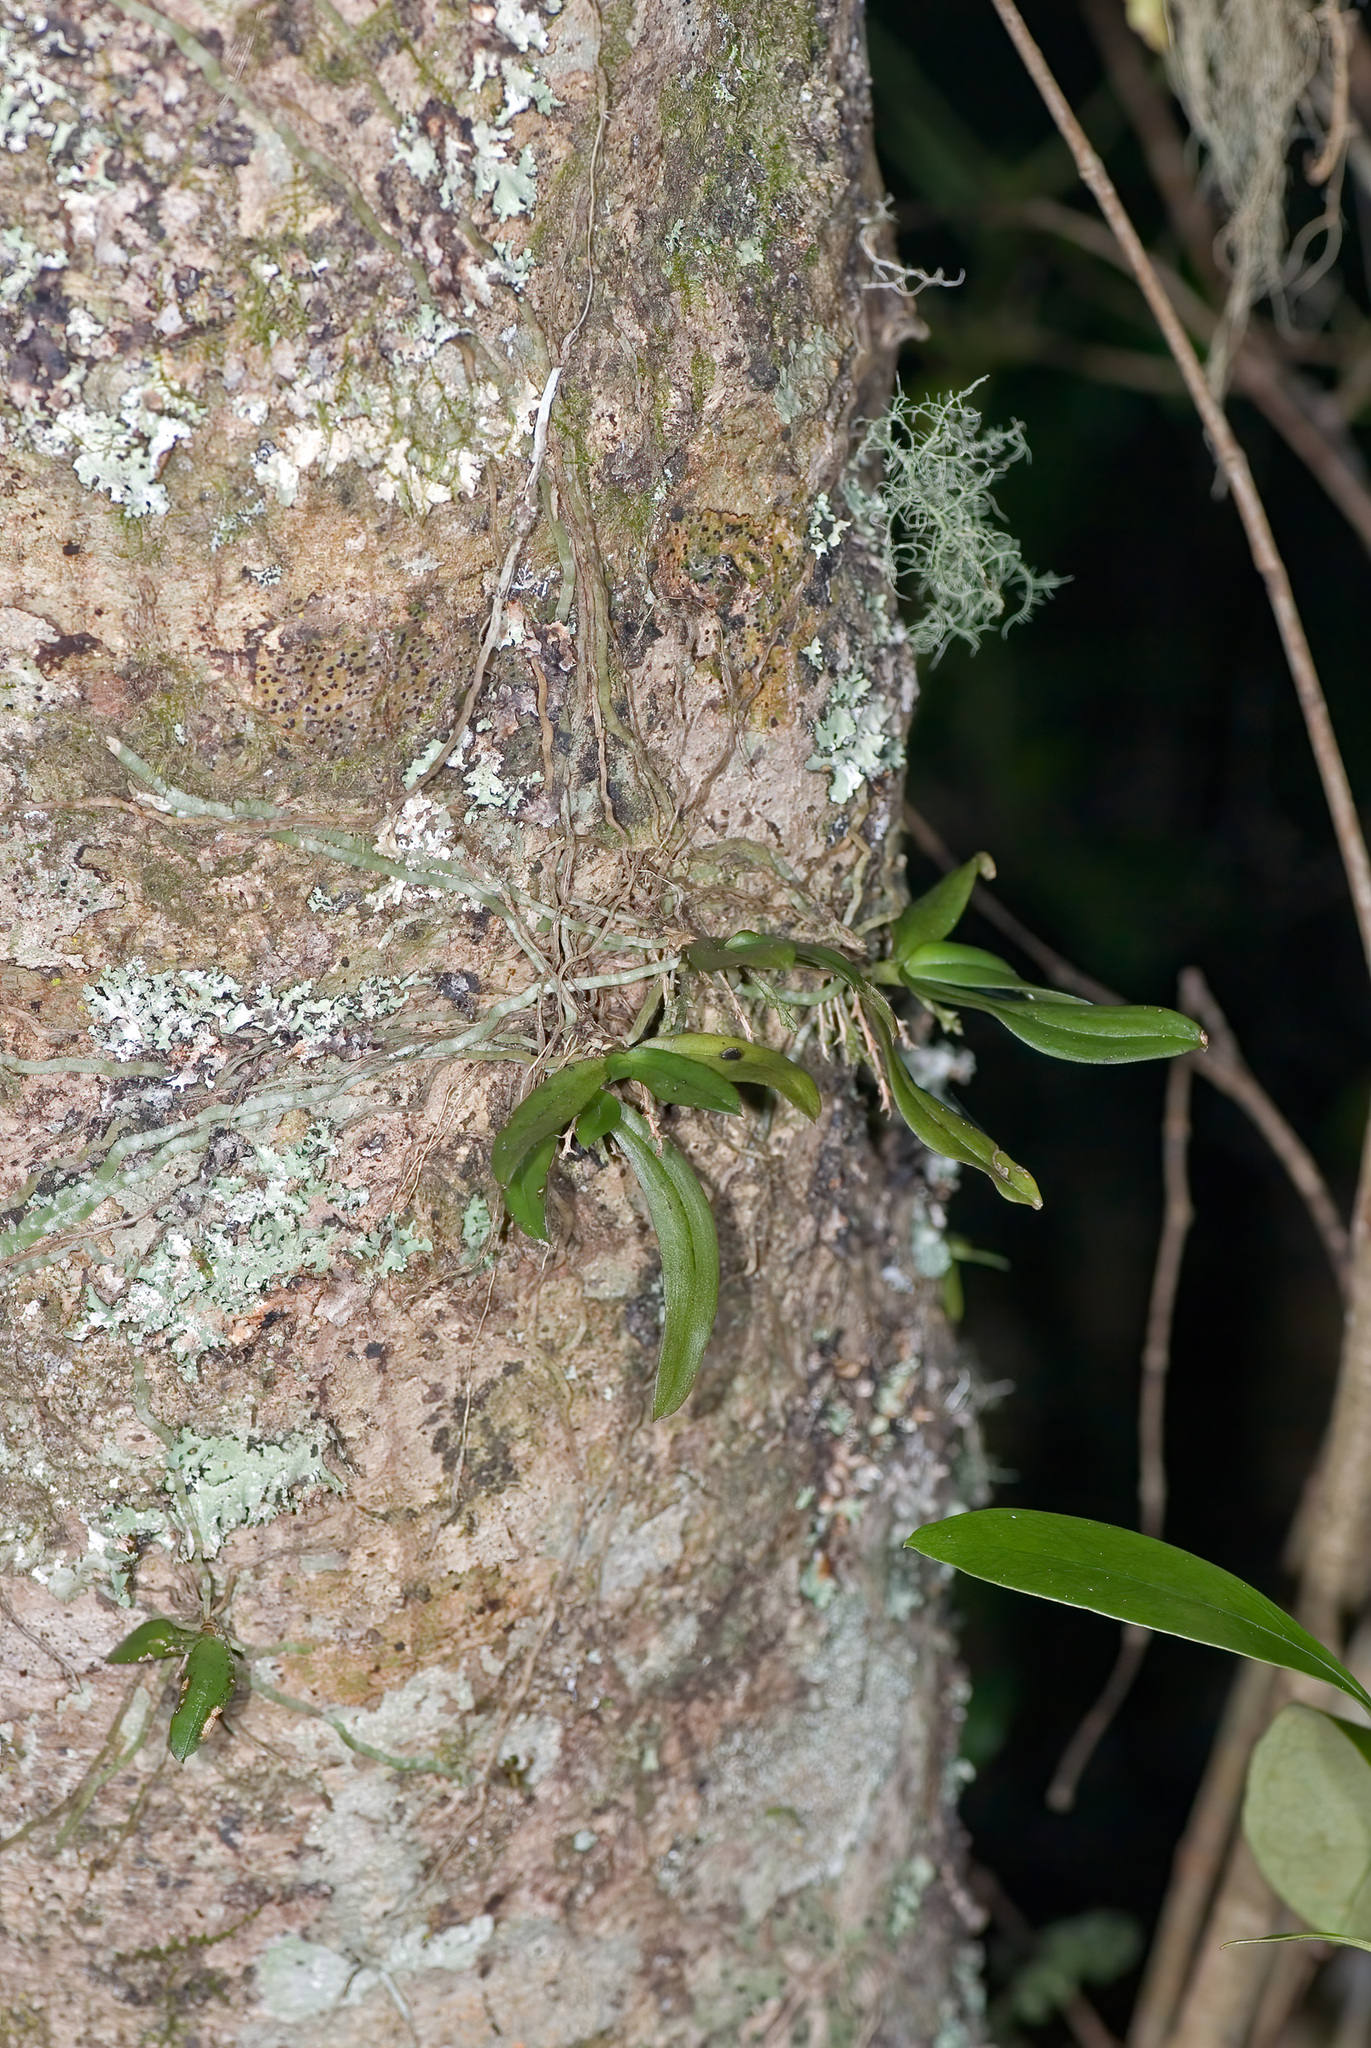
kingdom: Plantae
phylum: Tracheophyta
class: Liliopsida
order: Asparagales
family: Orchidaceae
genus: Drymoanthus
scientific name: Drymoanthus adversus
